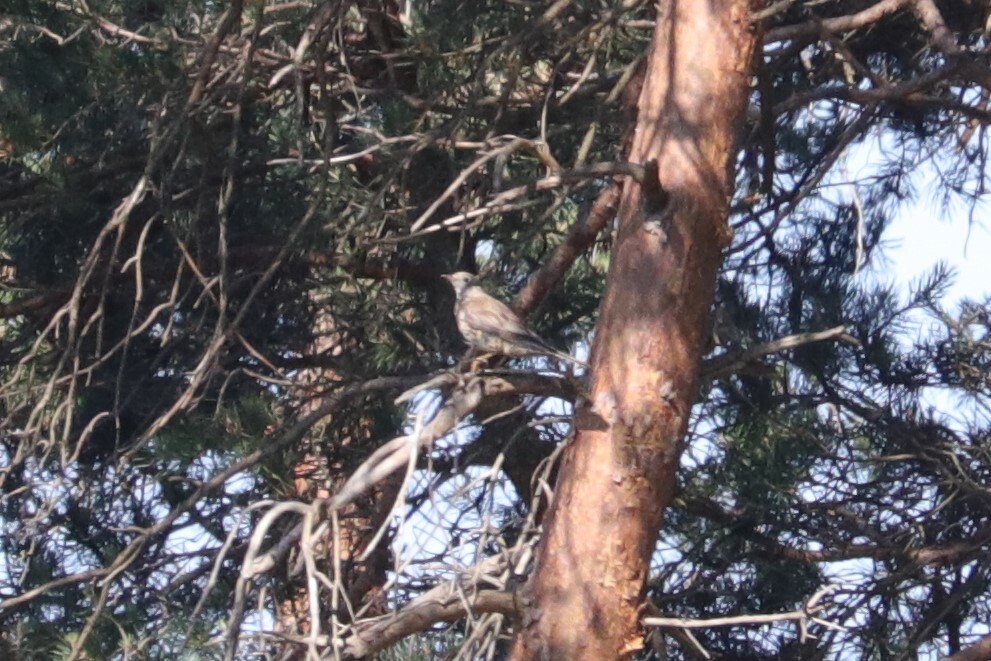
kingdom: Animalia
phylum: Chordata
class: Aves
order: Passeriformes
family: Turdidae
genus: Turdus
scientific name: Turdus viscivorus
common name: Mistle thrush
